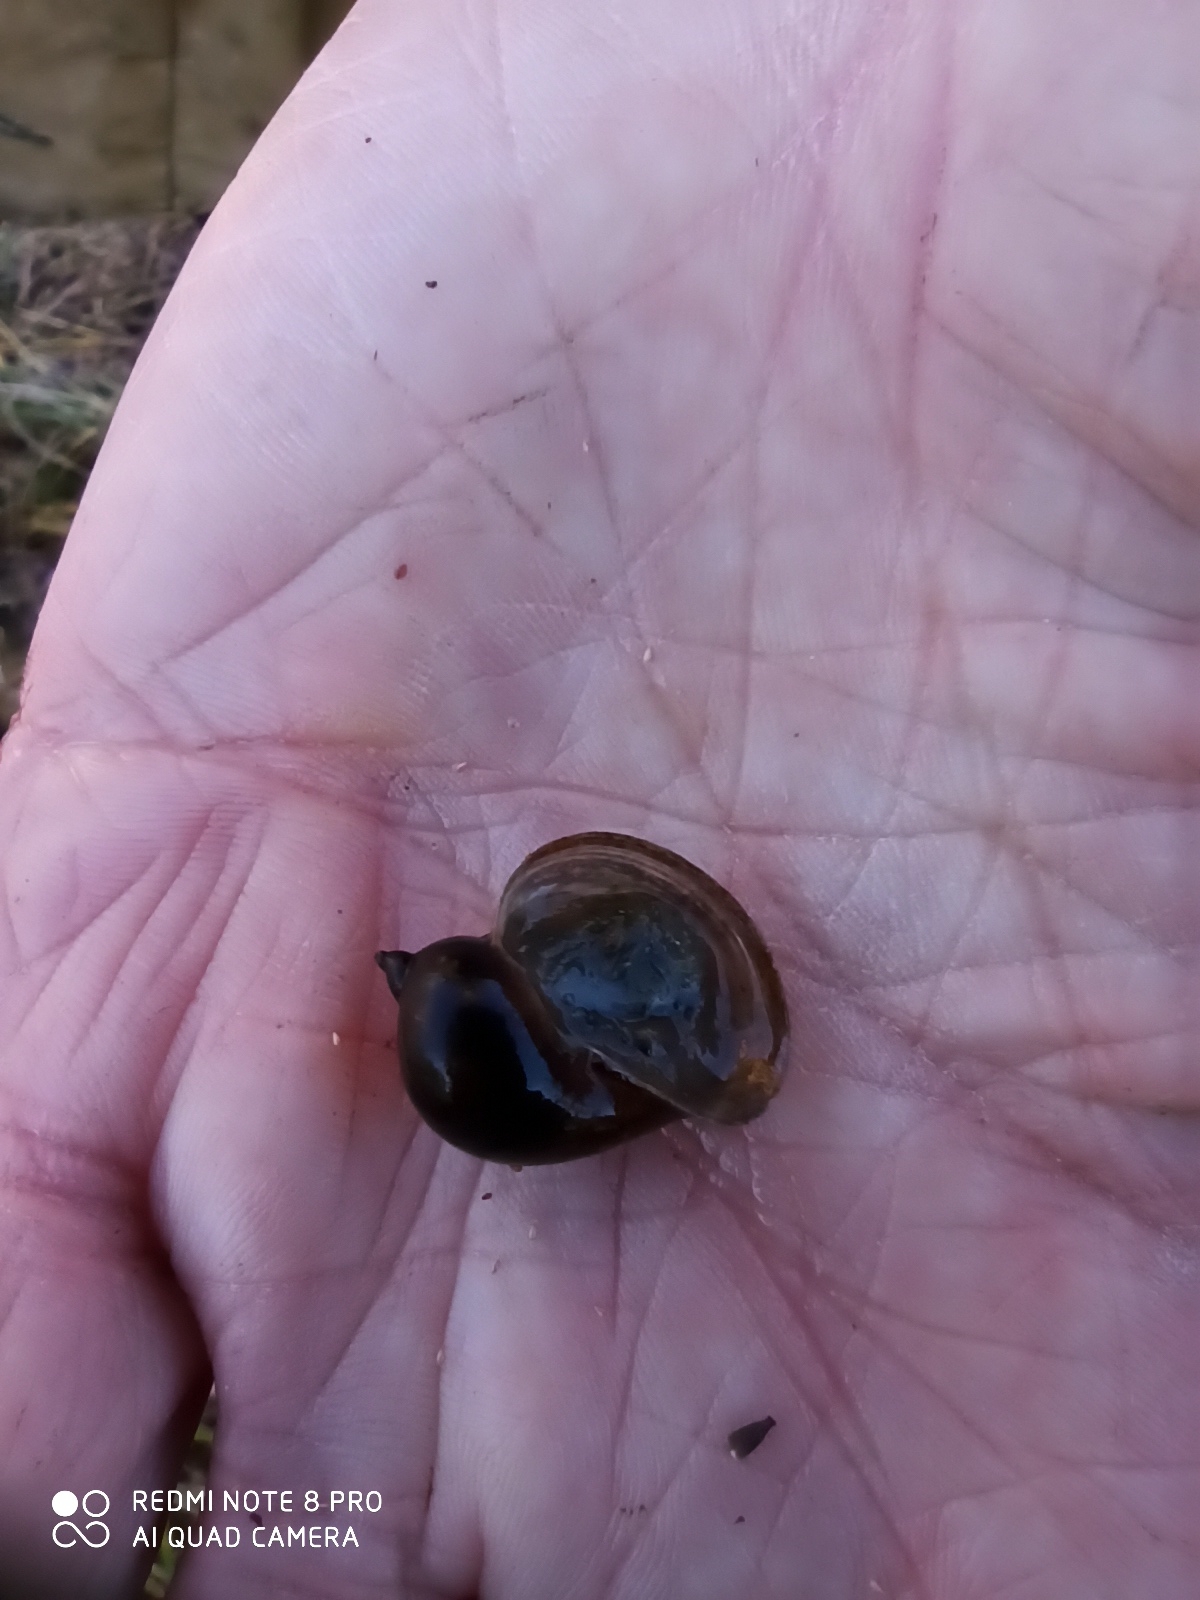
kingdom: Animalia
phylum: Mollusca
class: Gastropoda
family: Lymnaeidae
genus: Radix
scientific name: Radix auricularia
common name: Ear pond snail
